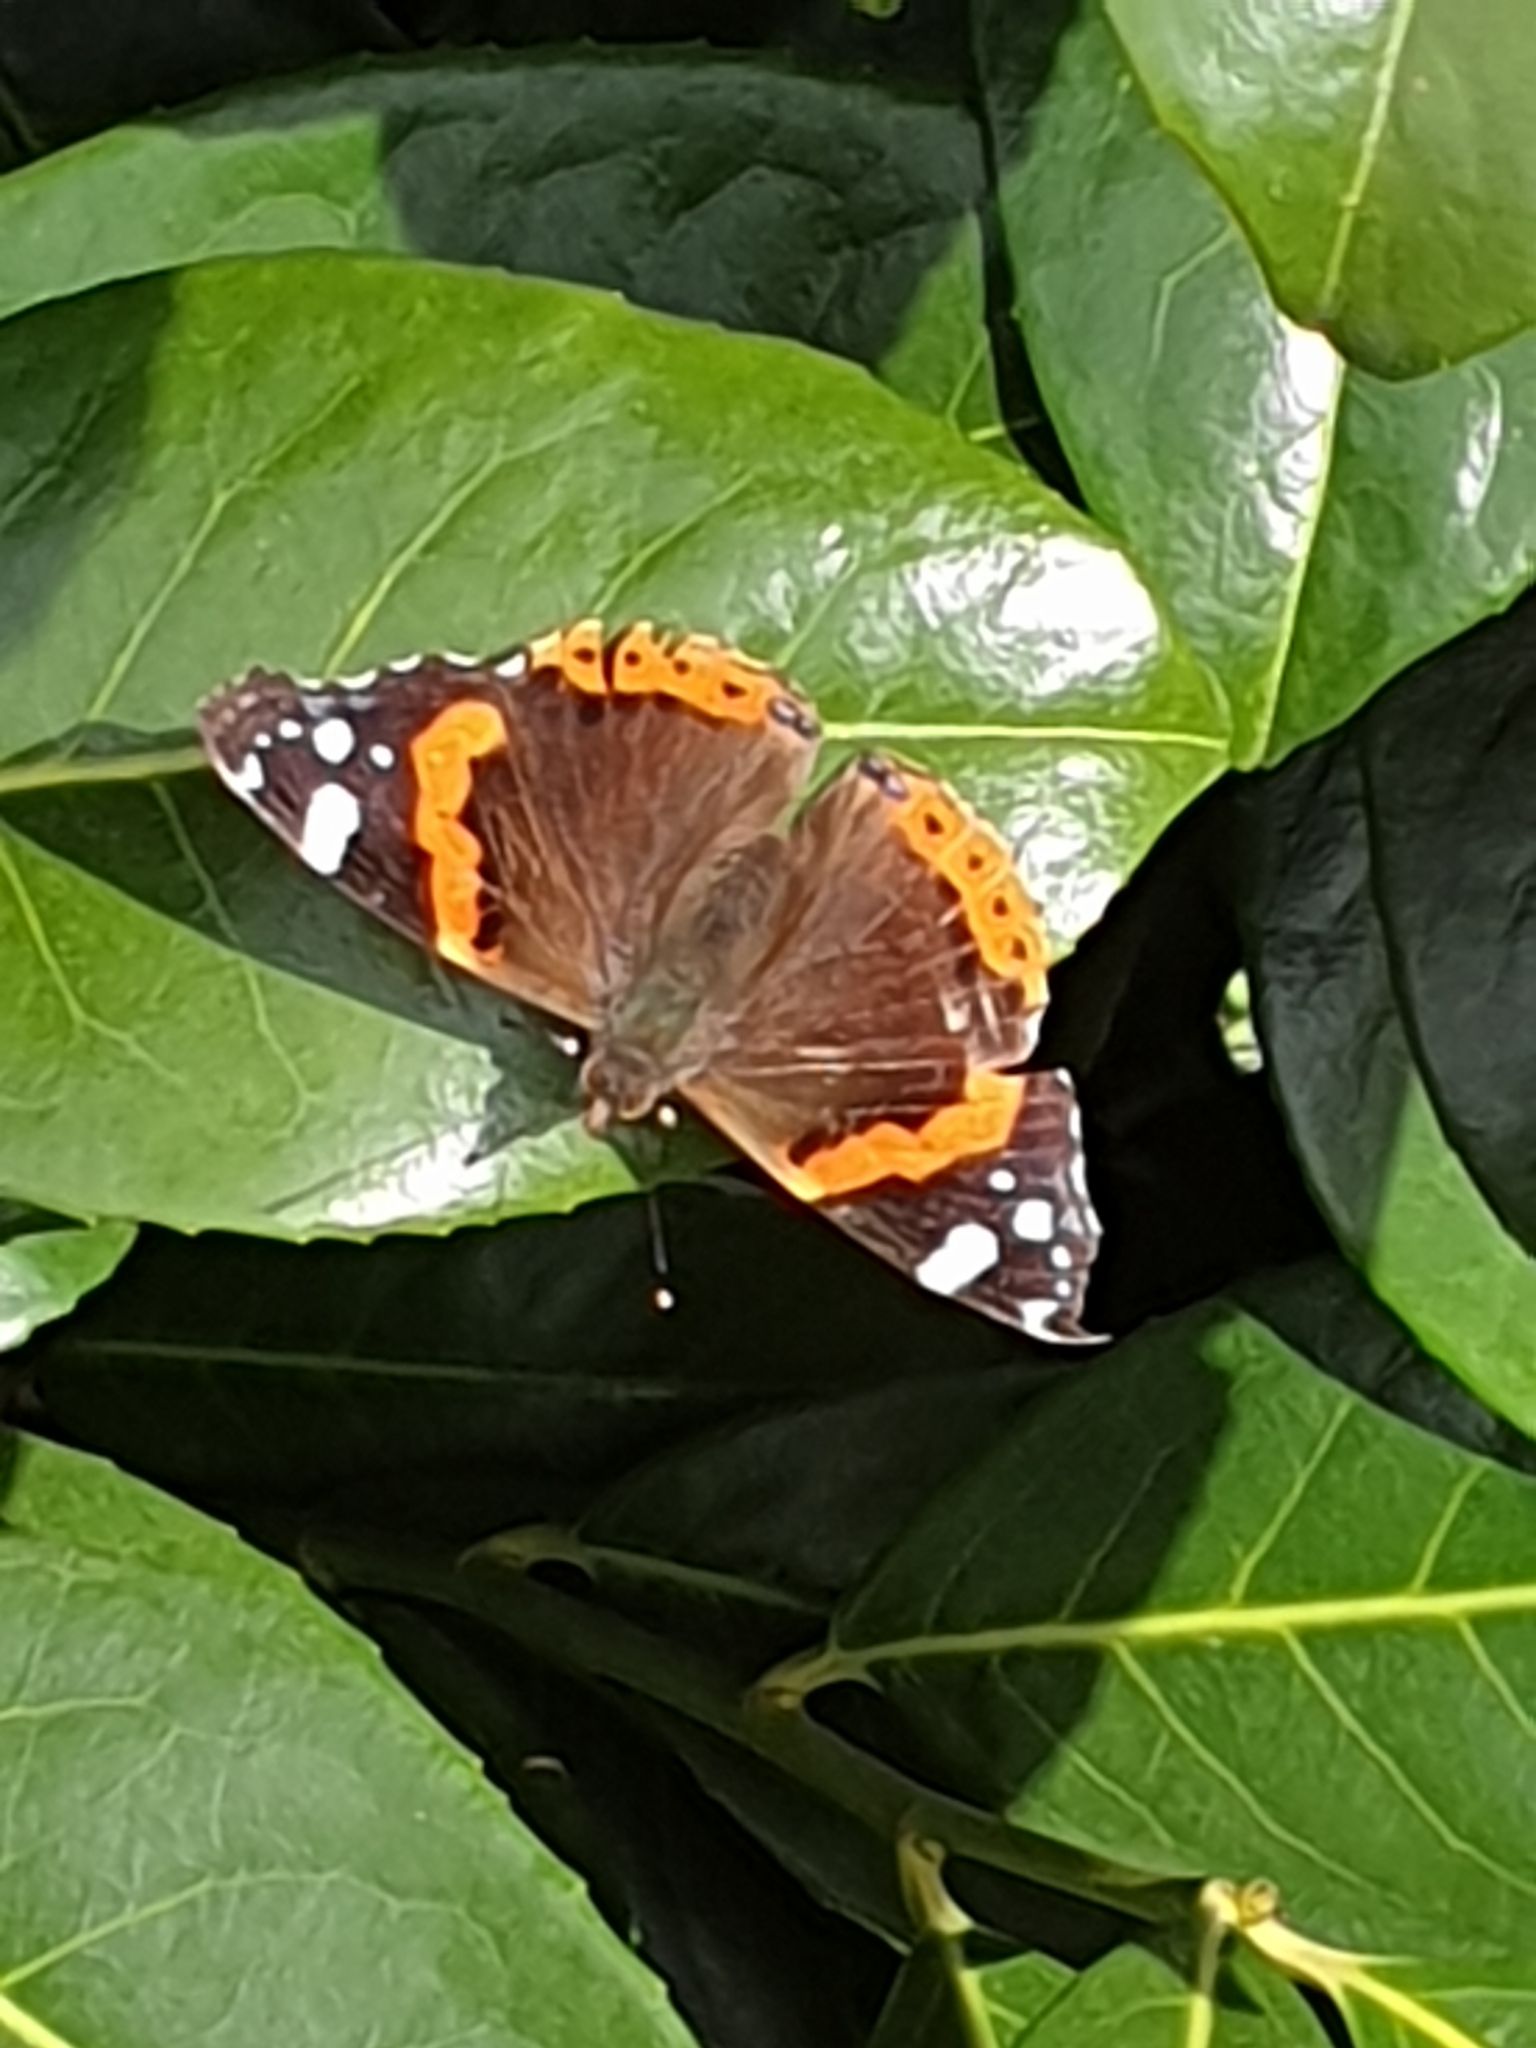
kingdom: Animalia
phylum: Arthropoda
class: Insecta
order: Lepidoptera
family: Nymphalidae
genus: Vanessa
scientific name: Vanessa atalanta
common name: Red admiral
